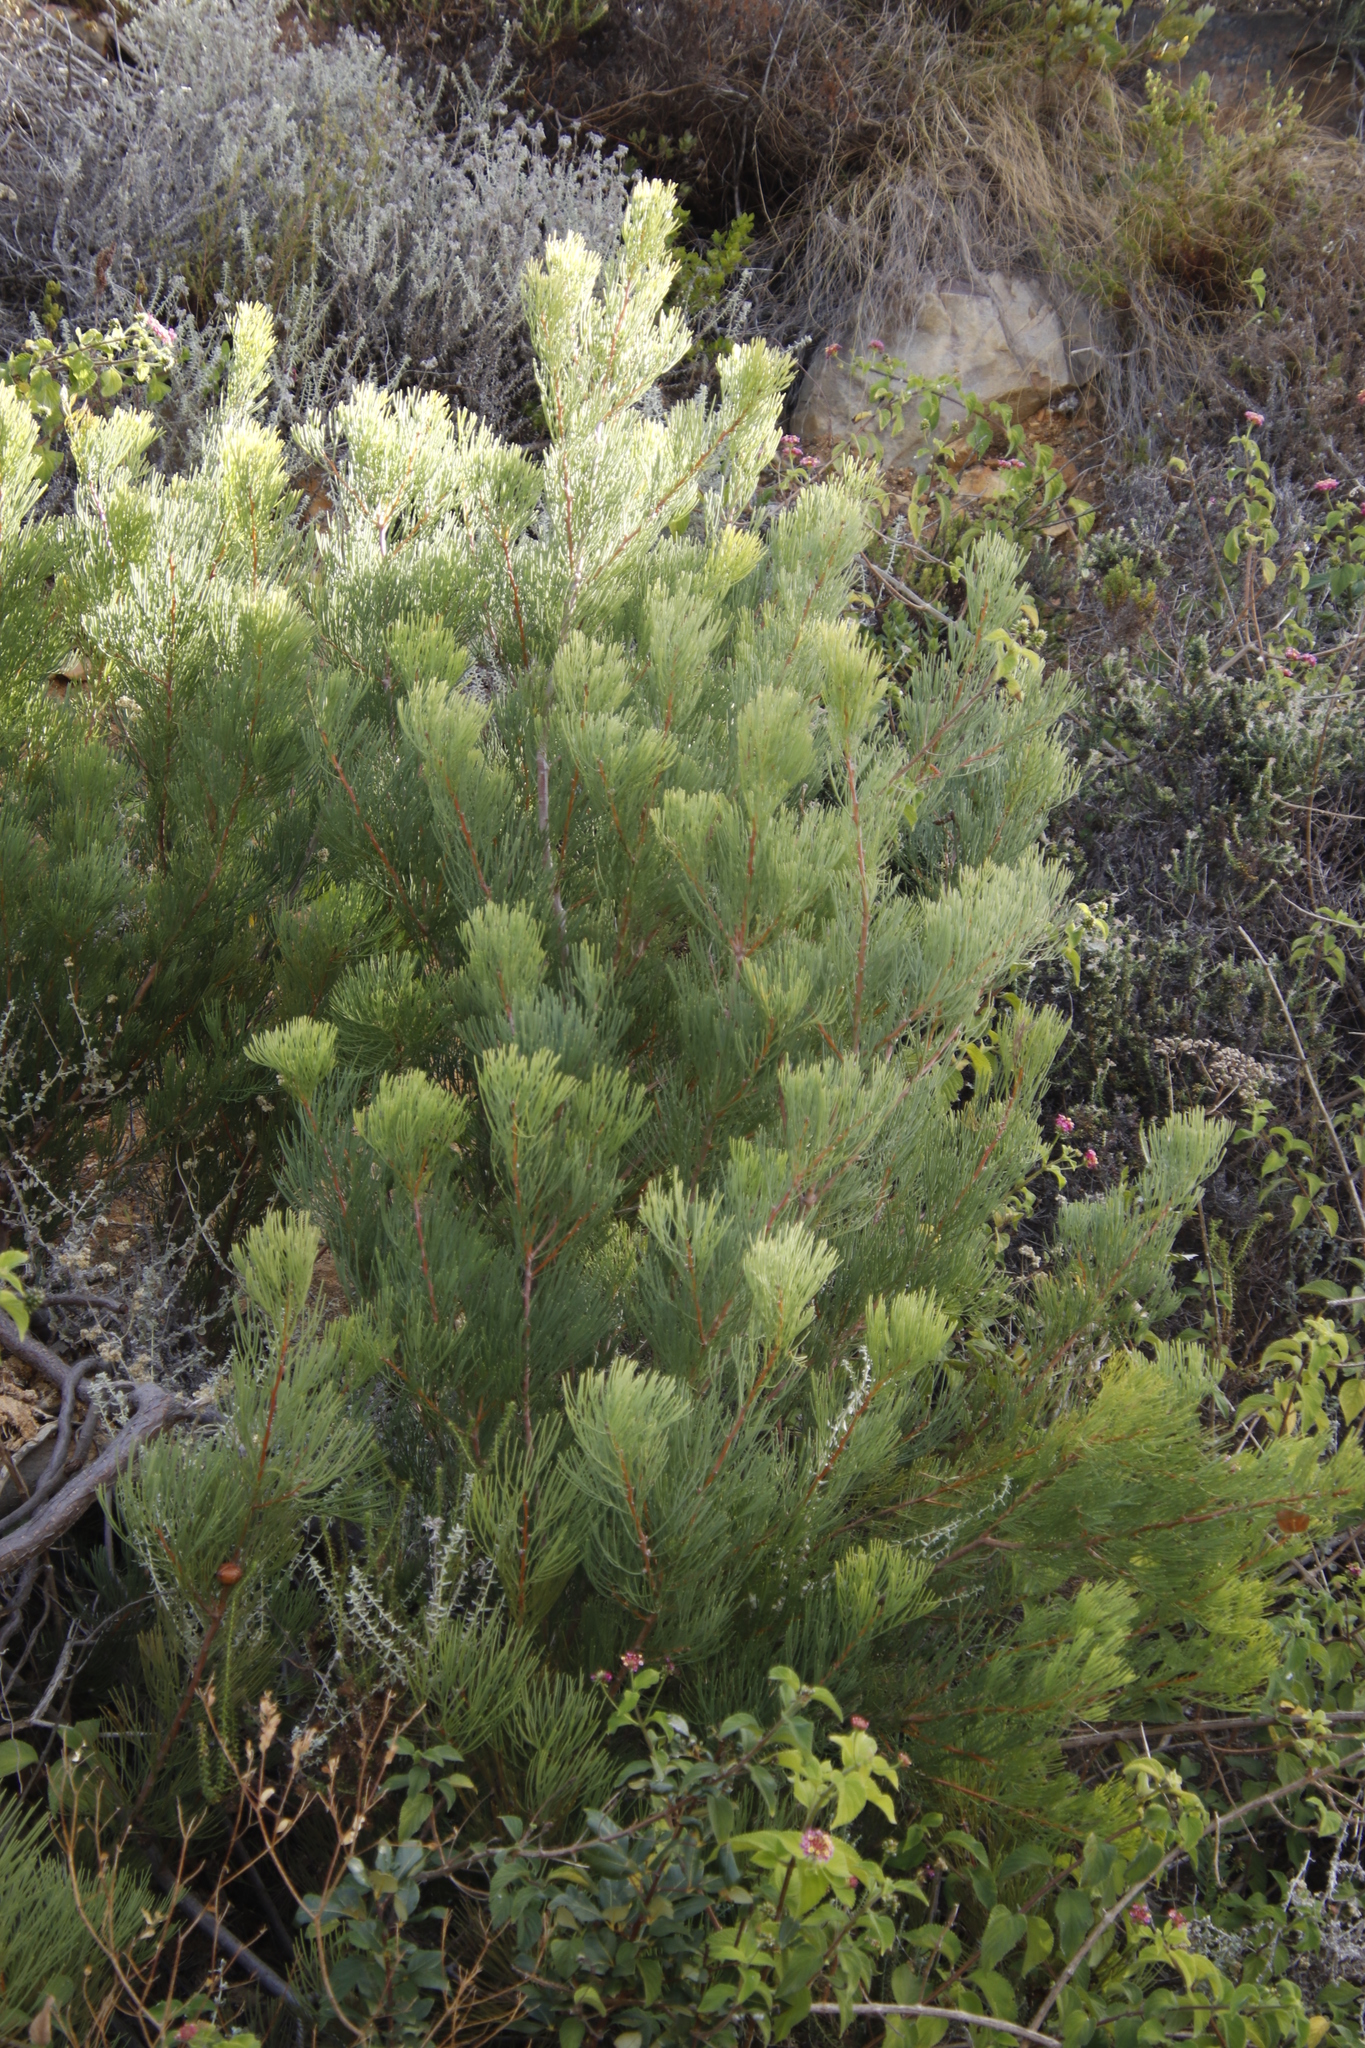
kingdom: Plantae
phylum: Tracheophyta
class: Magnoliopsida
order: Proteales
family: Proteaceae
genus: Hakea
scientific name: Hakea drupacea
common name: Sweet hakea
